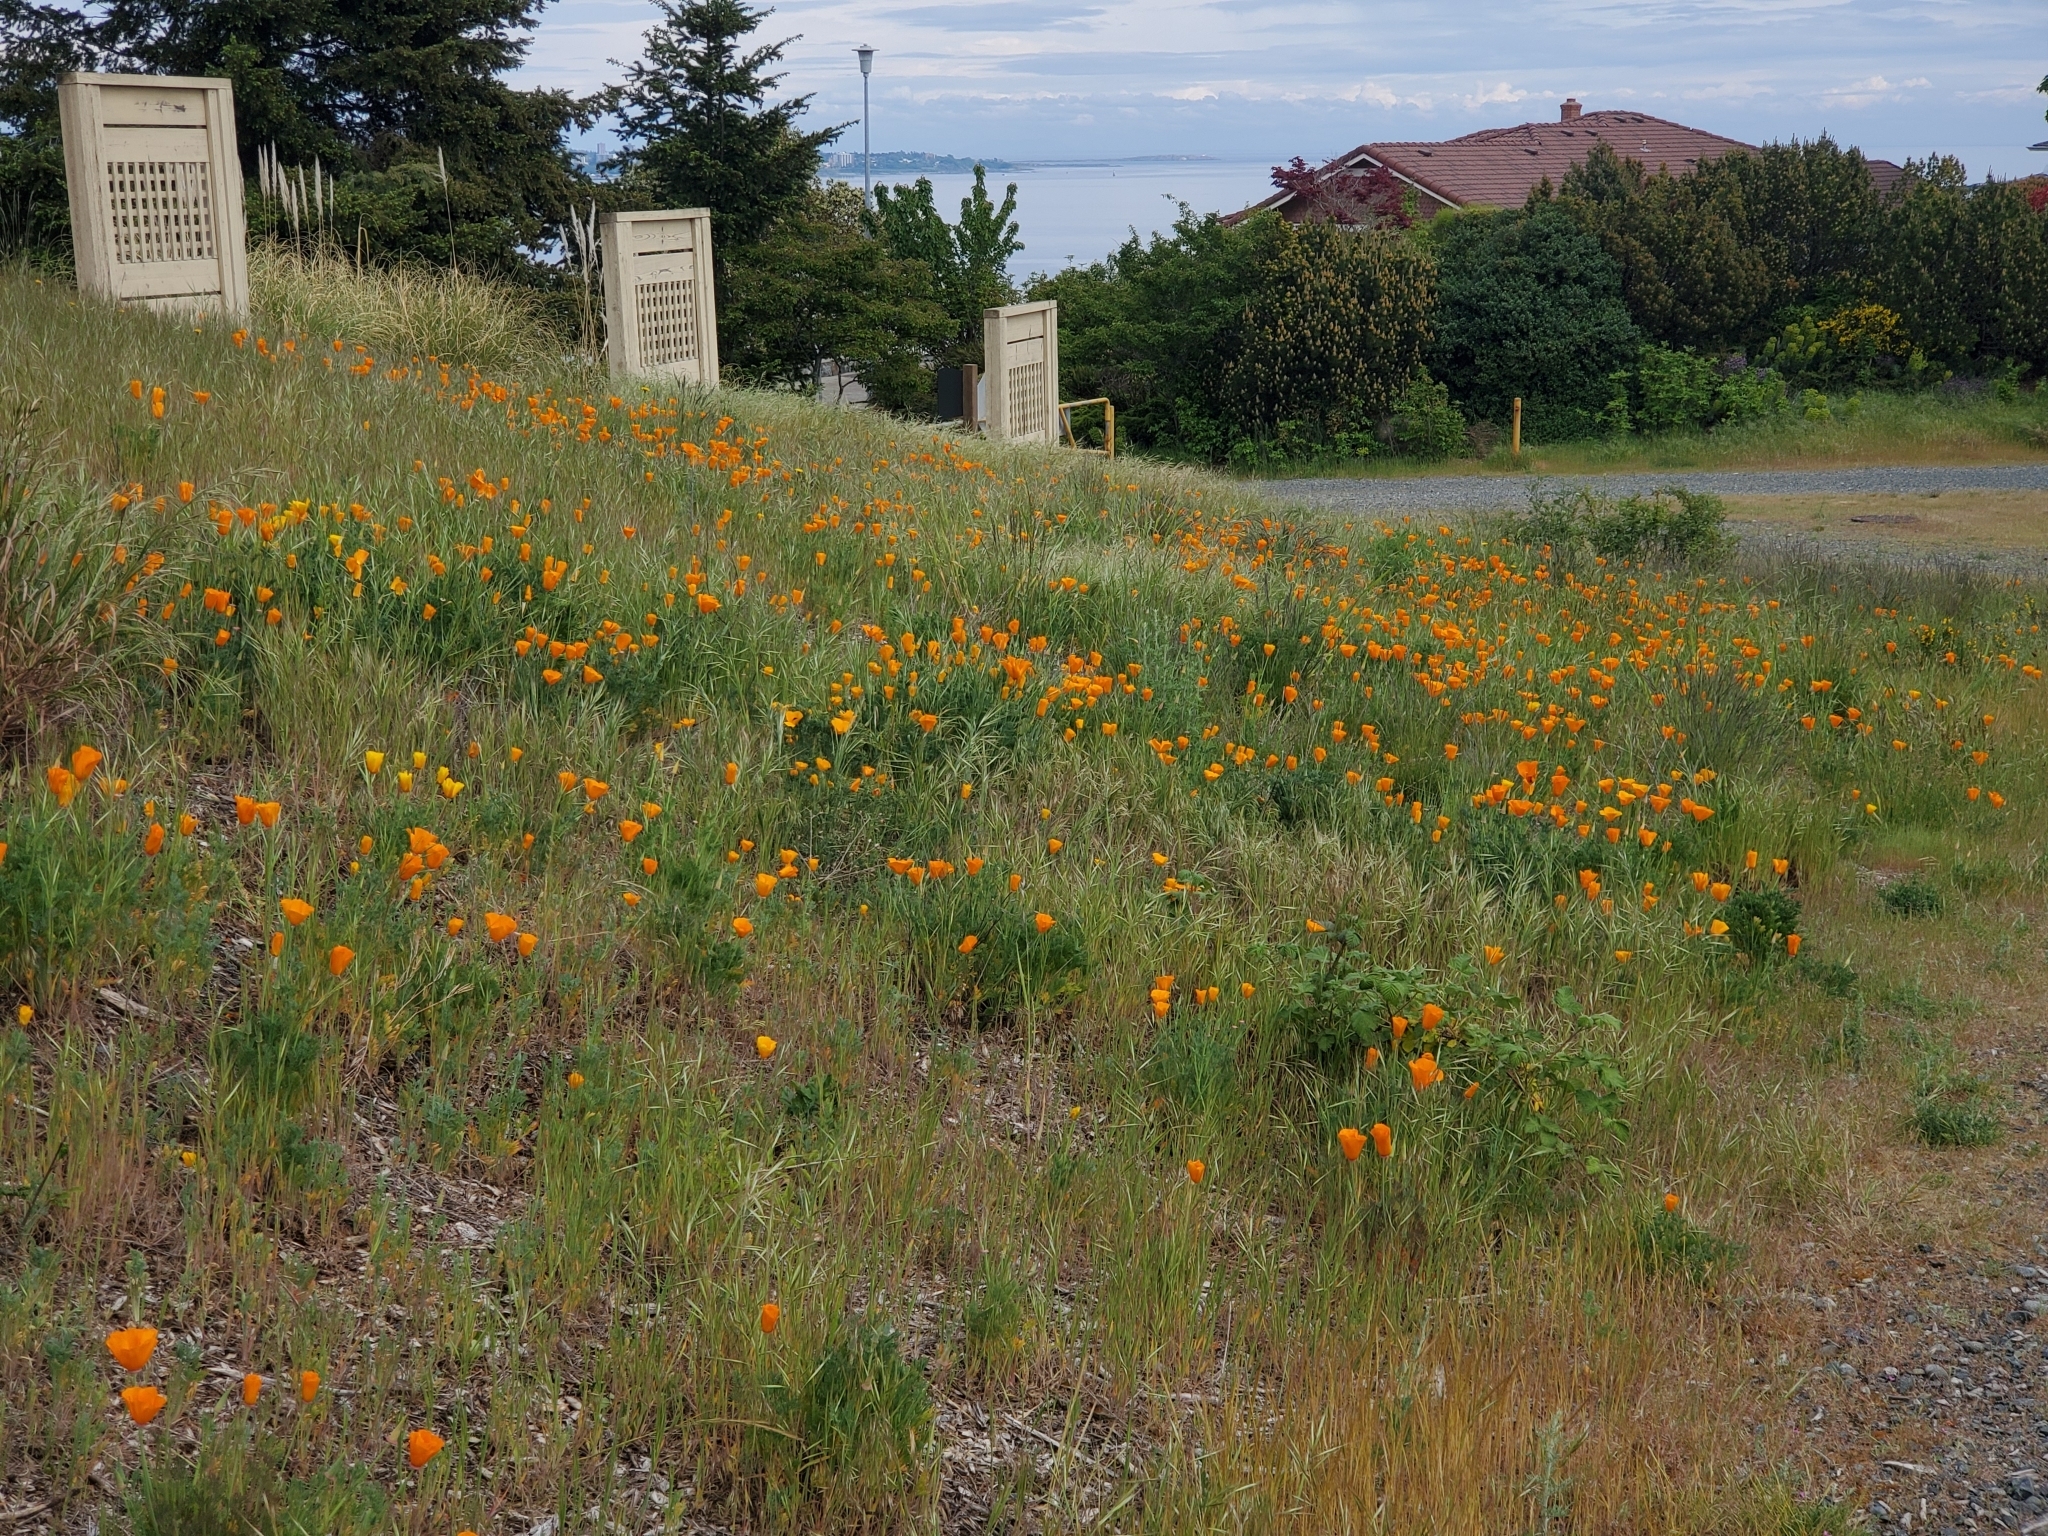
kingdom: Plantae
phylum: Tracheophyta
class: Magnoliopsida
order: Ranunculales
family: Papaveraceae
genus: Eschscholzia
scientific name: Eschscholzia californica
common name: California poppy
